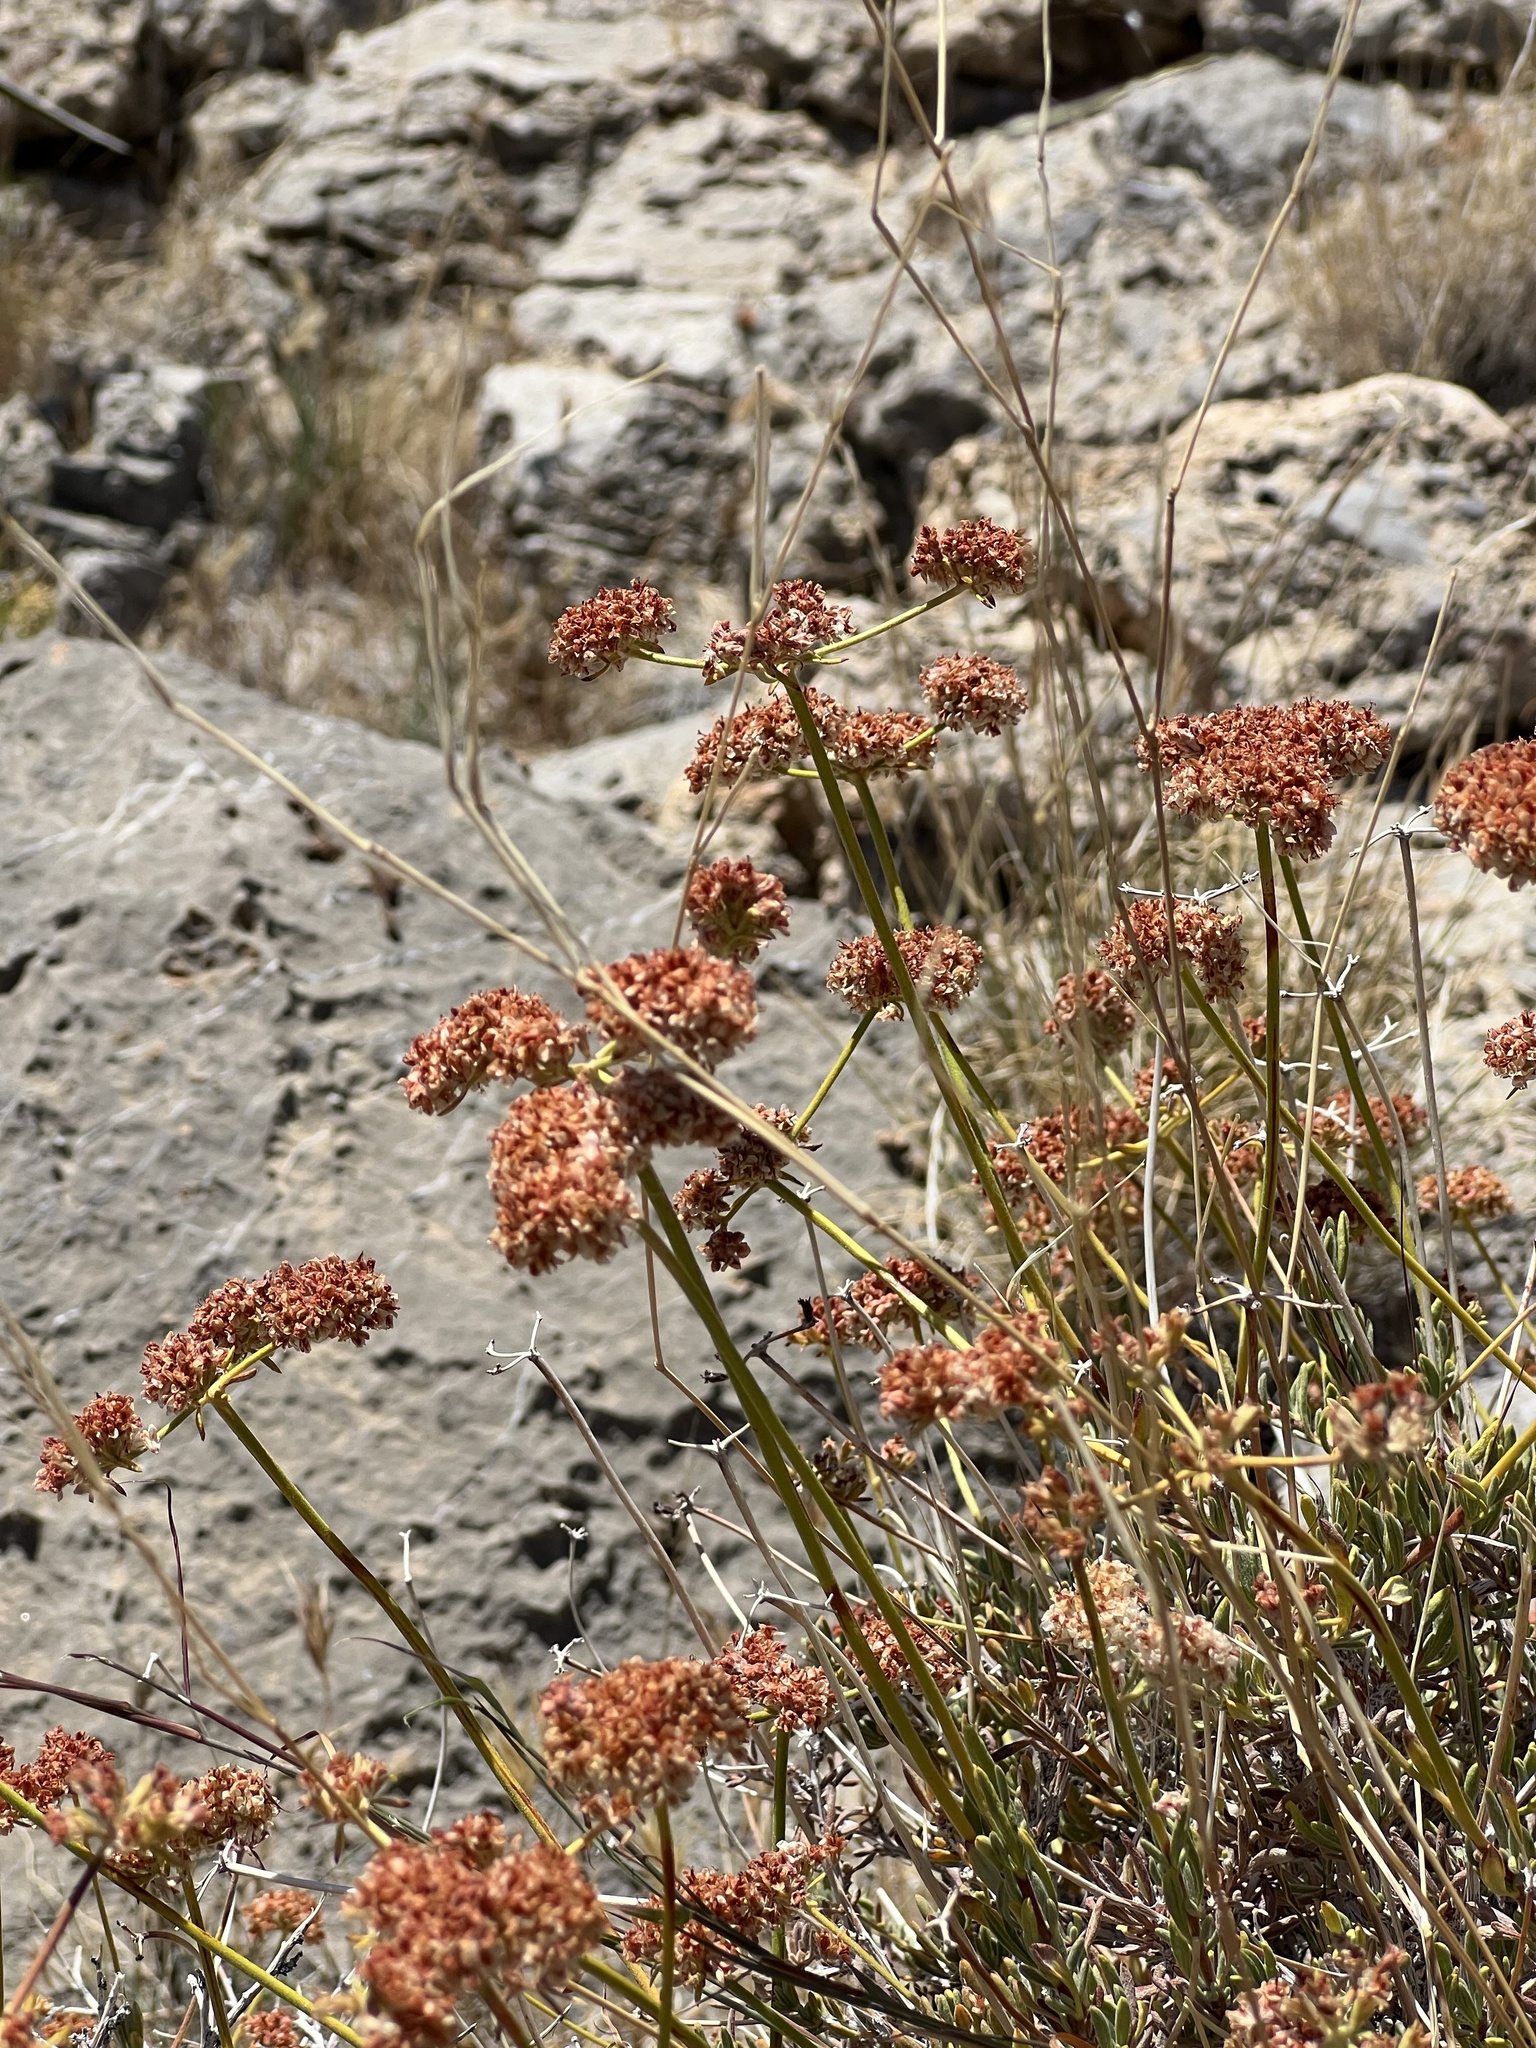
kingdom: Plantae
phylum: Tracheophyta
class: Magnoliopsida
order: Caryophyllales
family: Polygonaceae
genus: Eriogonum
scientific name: Eriogonum fasciculatum
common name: California wild buckwheat
